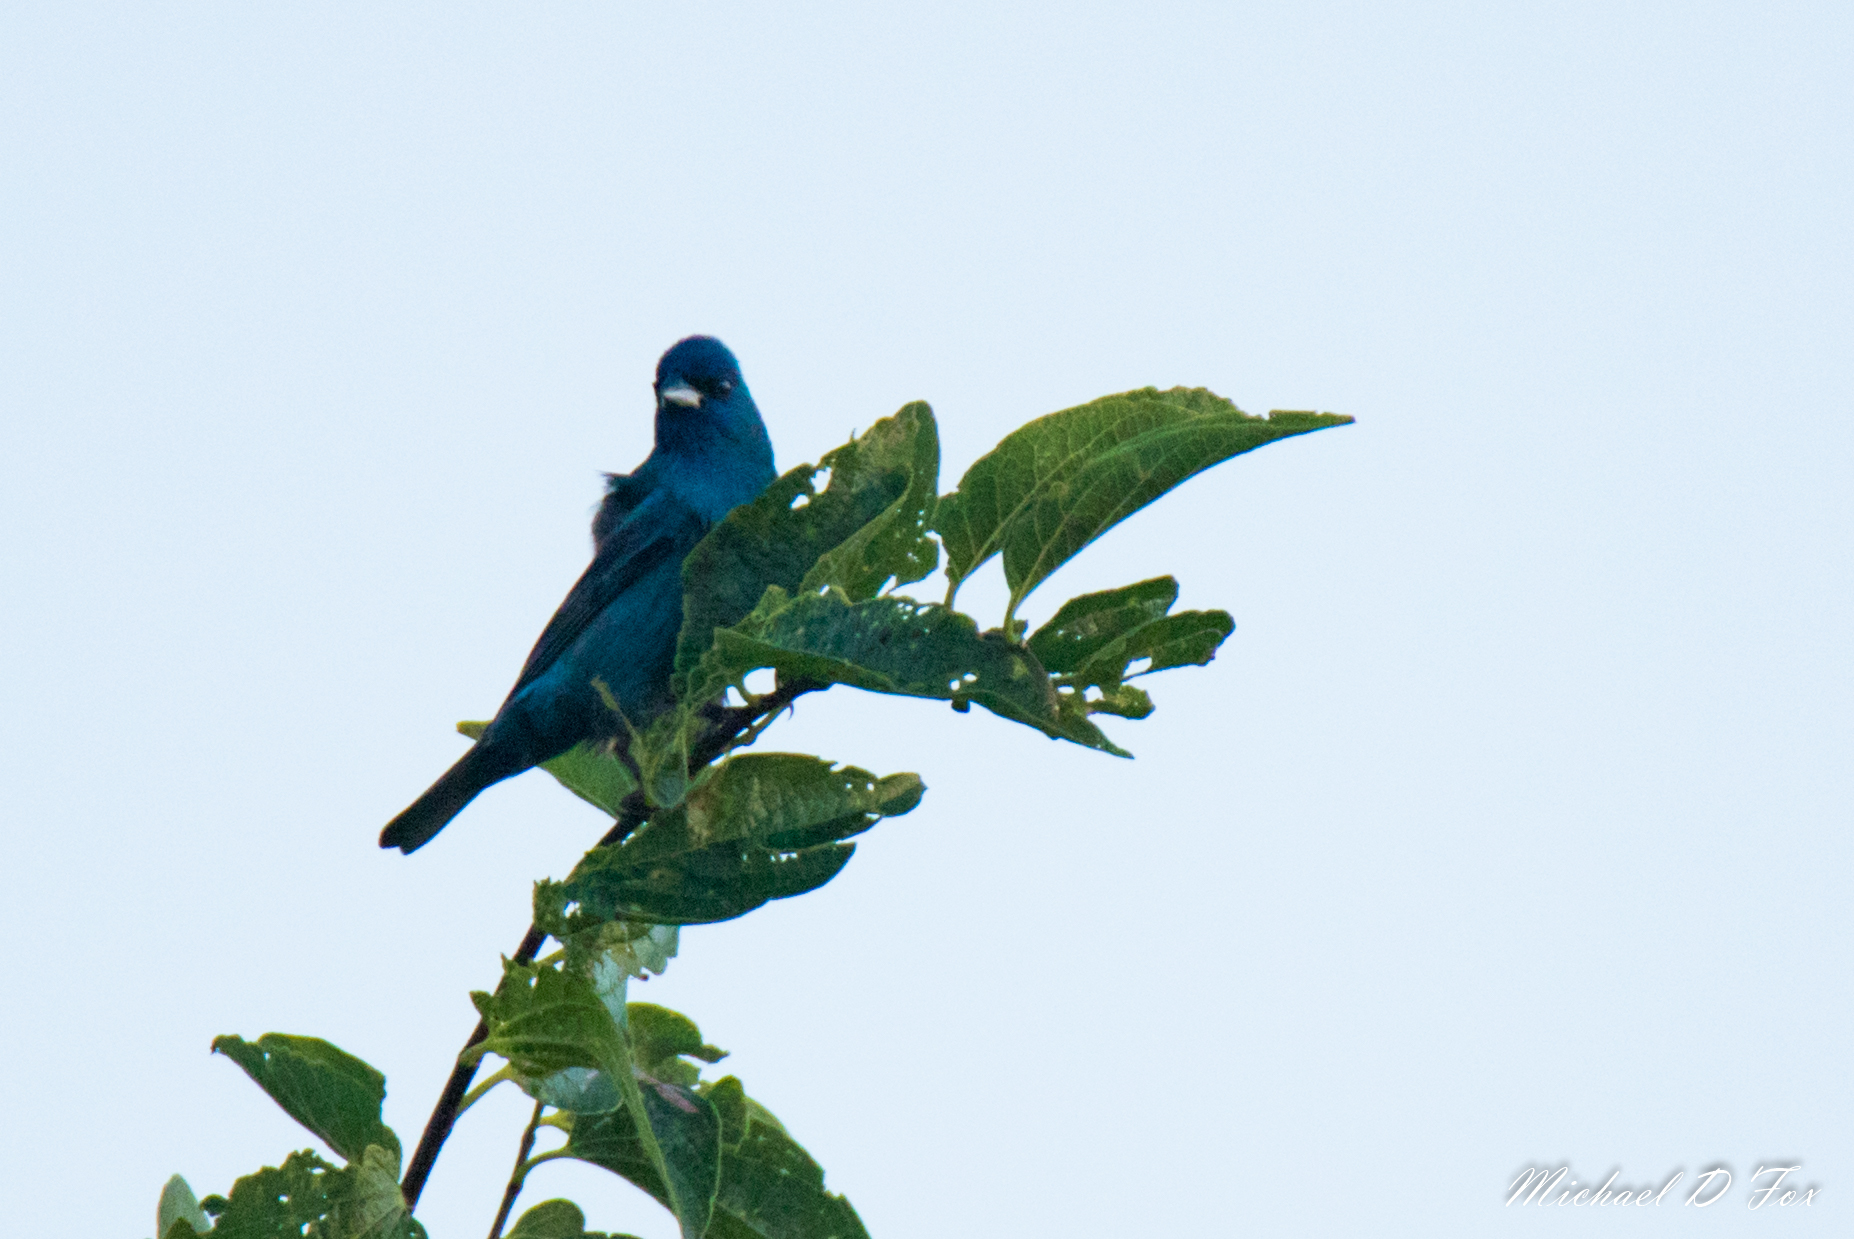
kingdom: Animalia
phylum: Chordata
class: Aves
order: Passeriformes
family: Cardinalidae
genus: Passerina
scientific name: Passerina cyanea
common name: Indigo bunting
